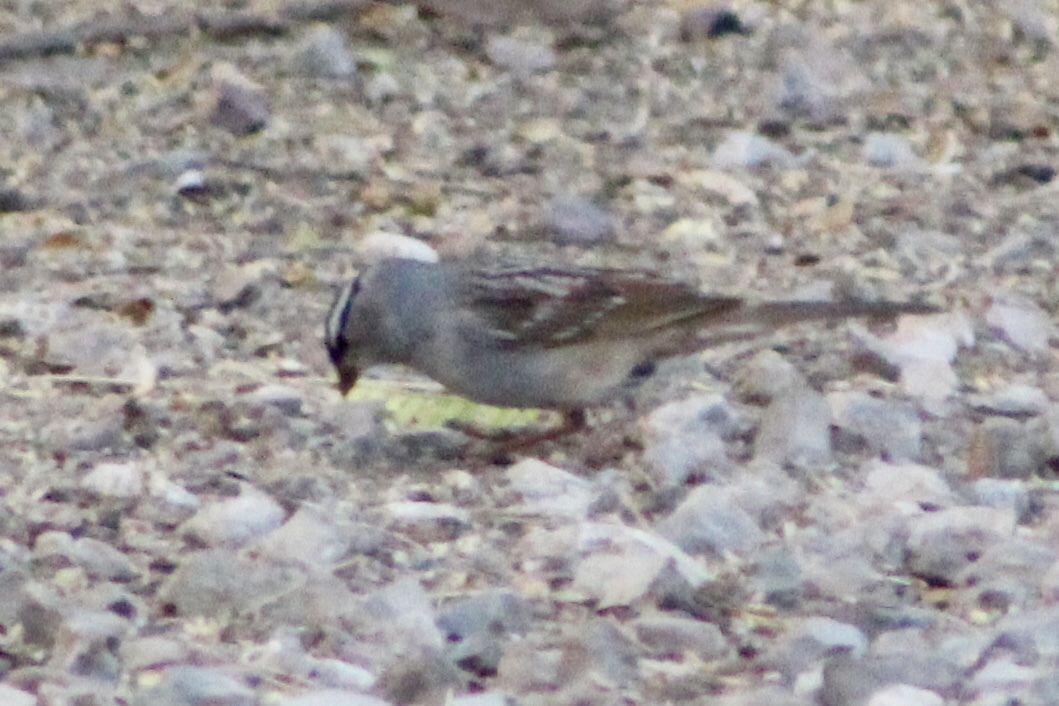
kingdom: Animalia
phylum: Chordata
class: Aves
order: Passeriformes
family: Passerellidae
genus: Zonotrichia
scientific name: Zonotrichia leucophrys
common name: White-crowned sparrow
